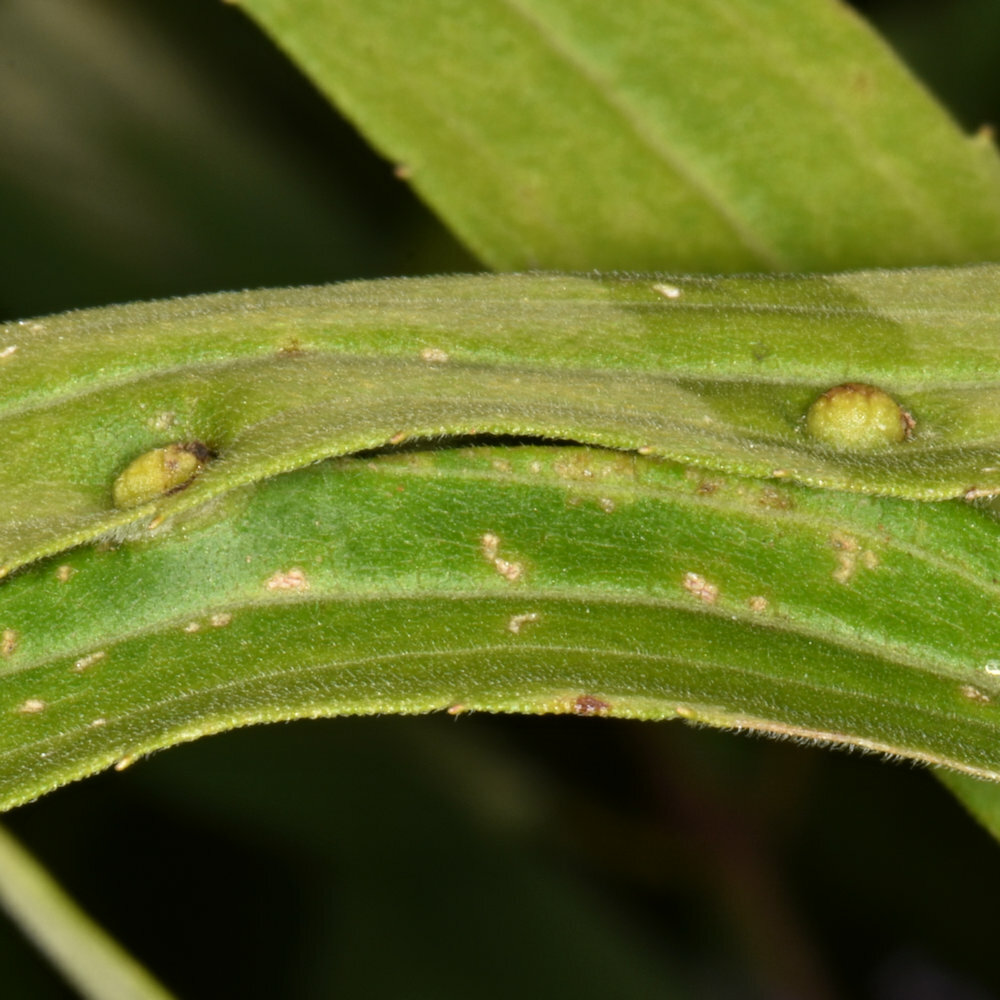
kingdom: Animalia
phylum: Arthropoda
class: Insecta
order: Diptera
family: Cecidomyiidae
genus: Asphondylia
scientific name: Asphondylia solidaginis
